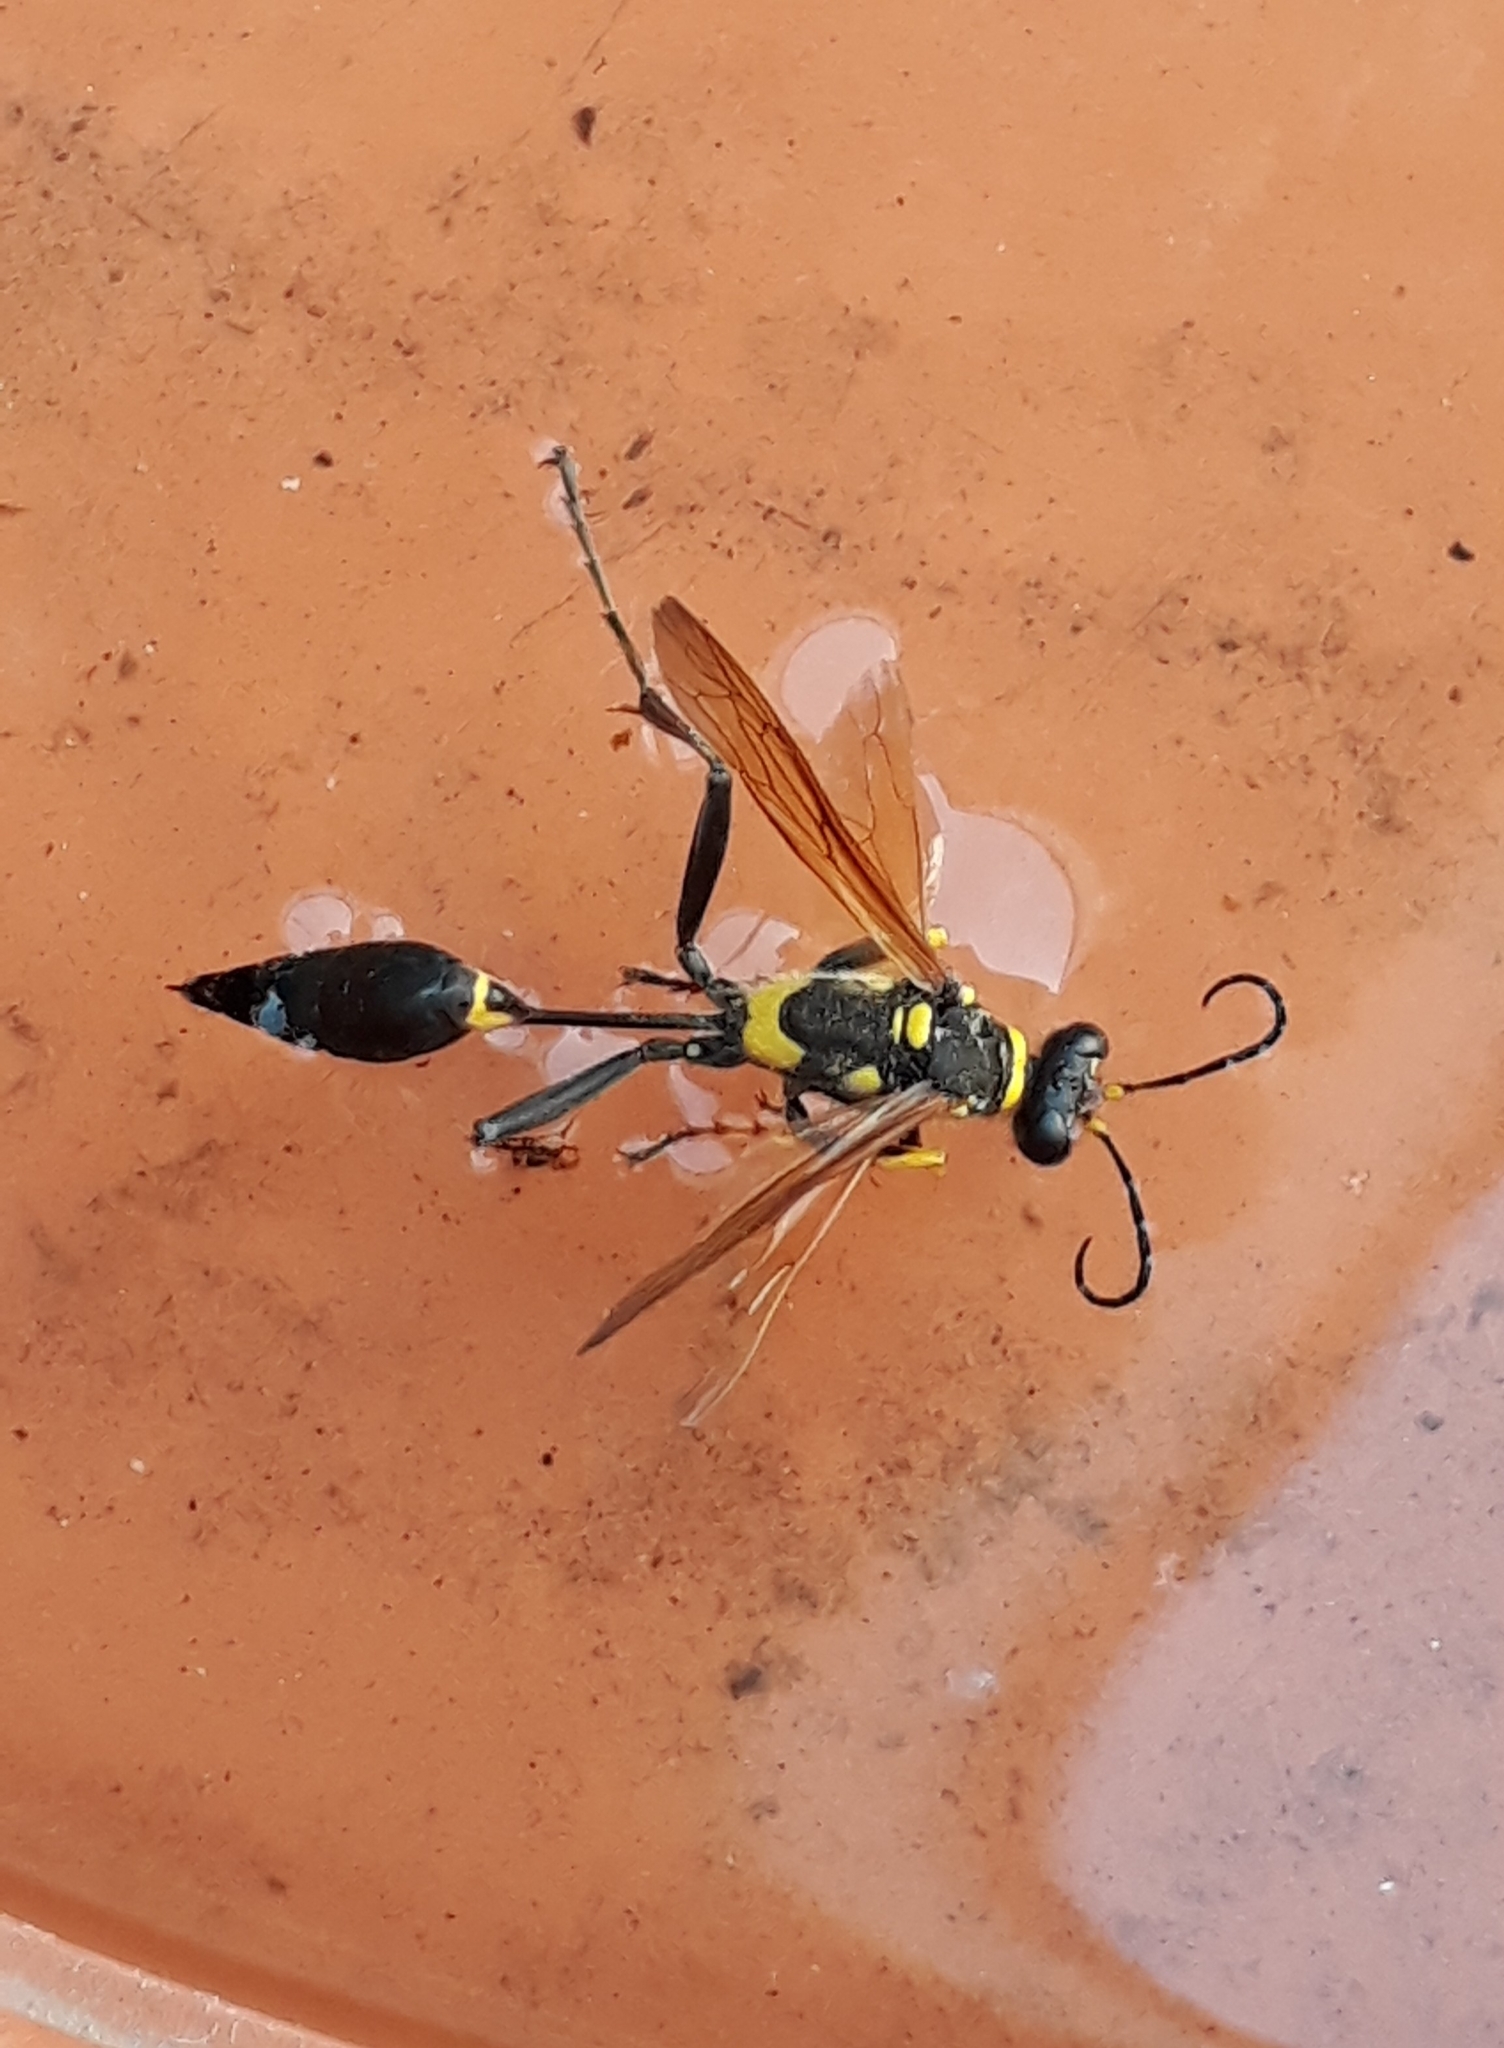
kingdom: Animalia
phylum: Arthropoda
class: Insecta
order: Hymenoptera
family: Sphecidae
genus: Sceliphron
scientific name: Sceliphron asiaticum
